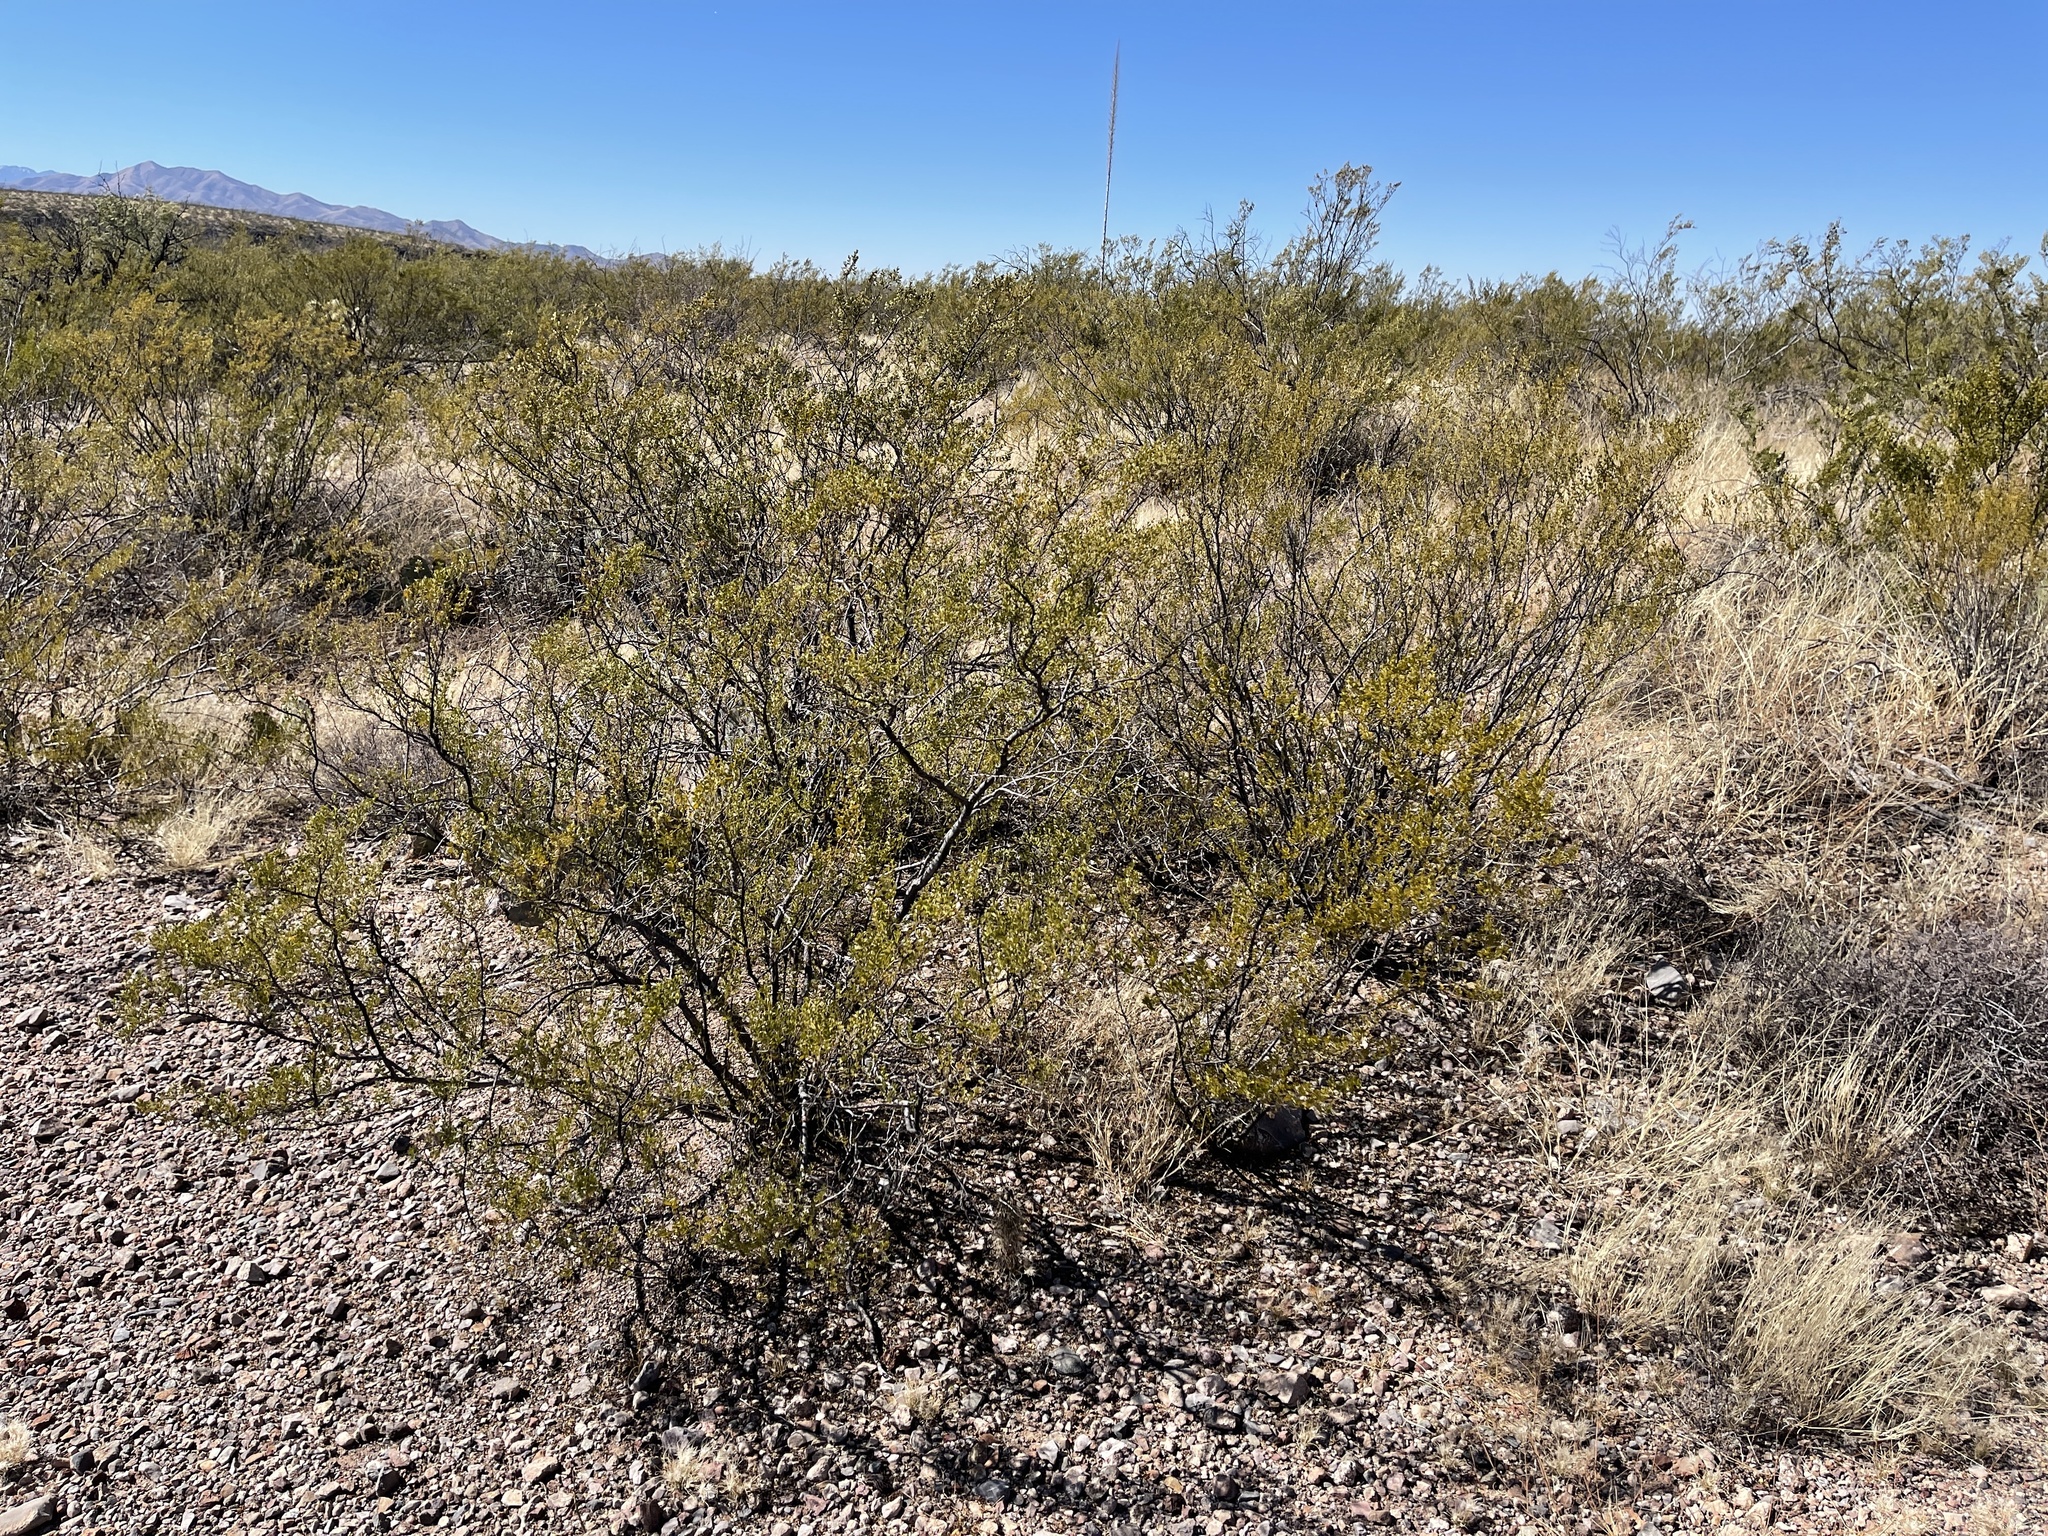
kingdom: Plantae
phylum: Tracheophyta
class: Magnoliopsida
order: Zygophyllales
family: Zygophyllaceae
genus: Larrea
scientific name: Larrea tridentata
